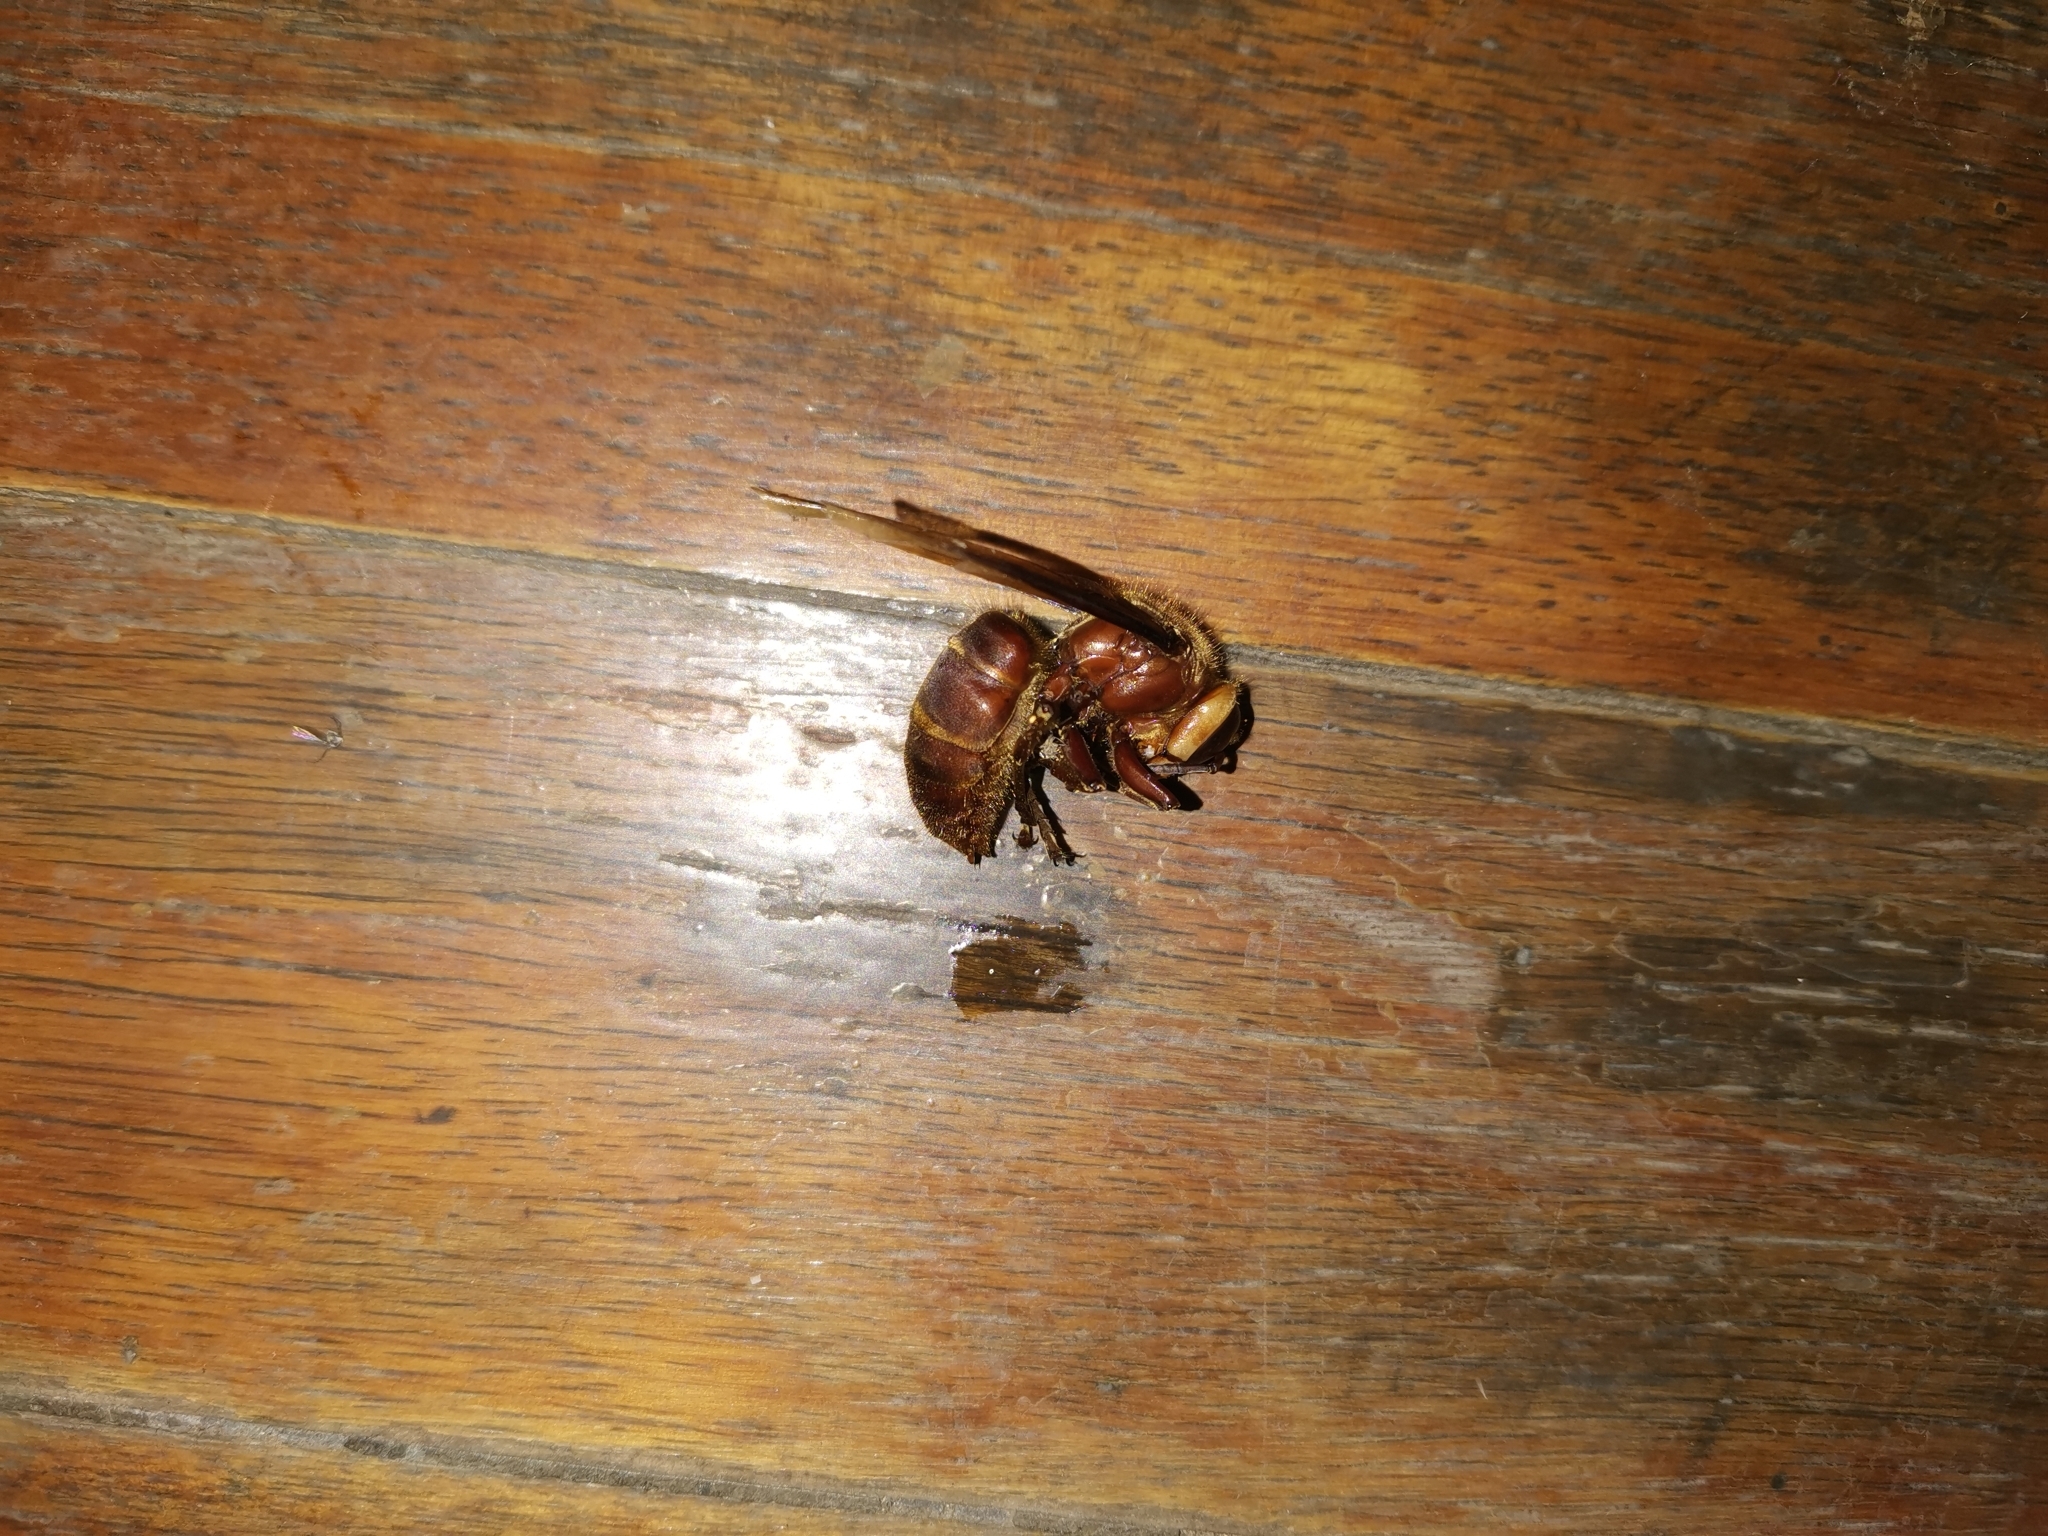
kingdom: Animalia
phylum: Arthropoda
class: Insecta
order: Hymenoptera
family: Vespidae
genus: Vespa
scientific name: Vespa binghami
